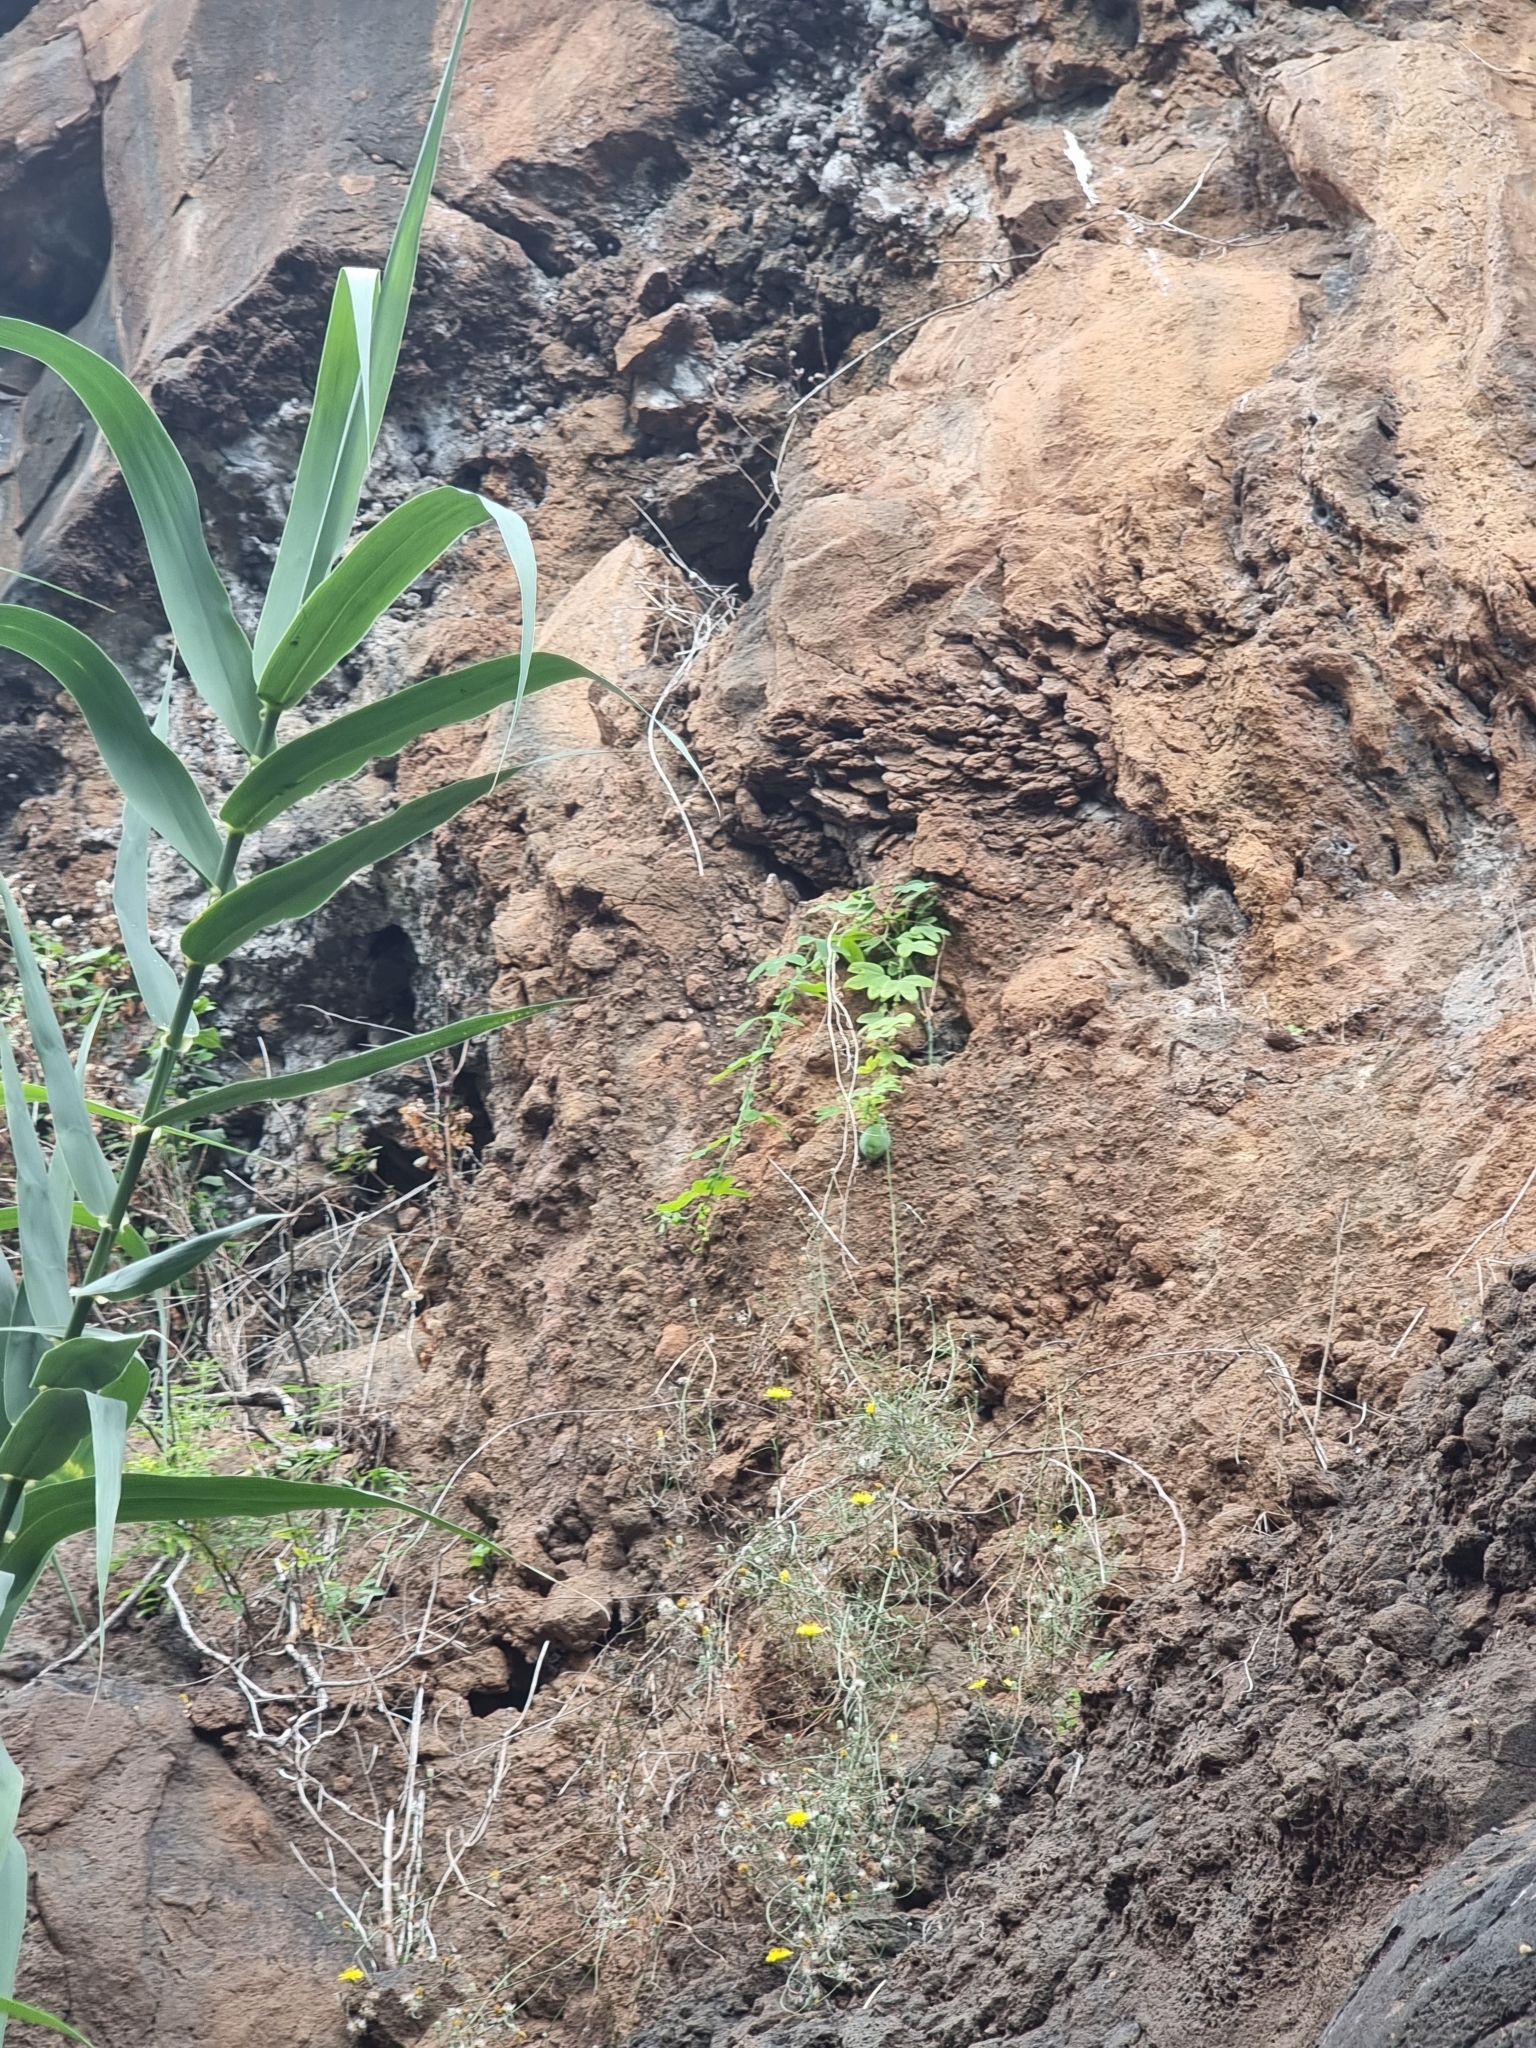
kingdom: Plantae
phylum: Tracheophyta
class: Magnoliopsida
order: Malpighiales
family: Passifloraceae
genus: Passiflora
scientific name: Passiflora subpeltata
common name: White passionflower
